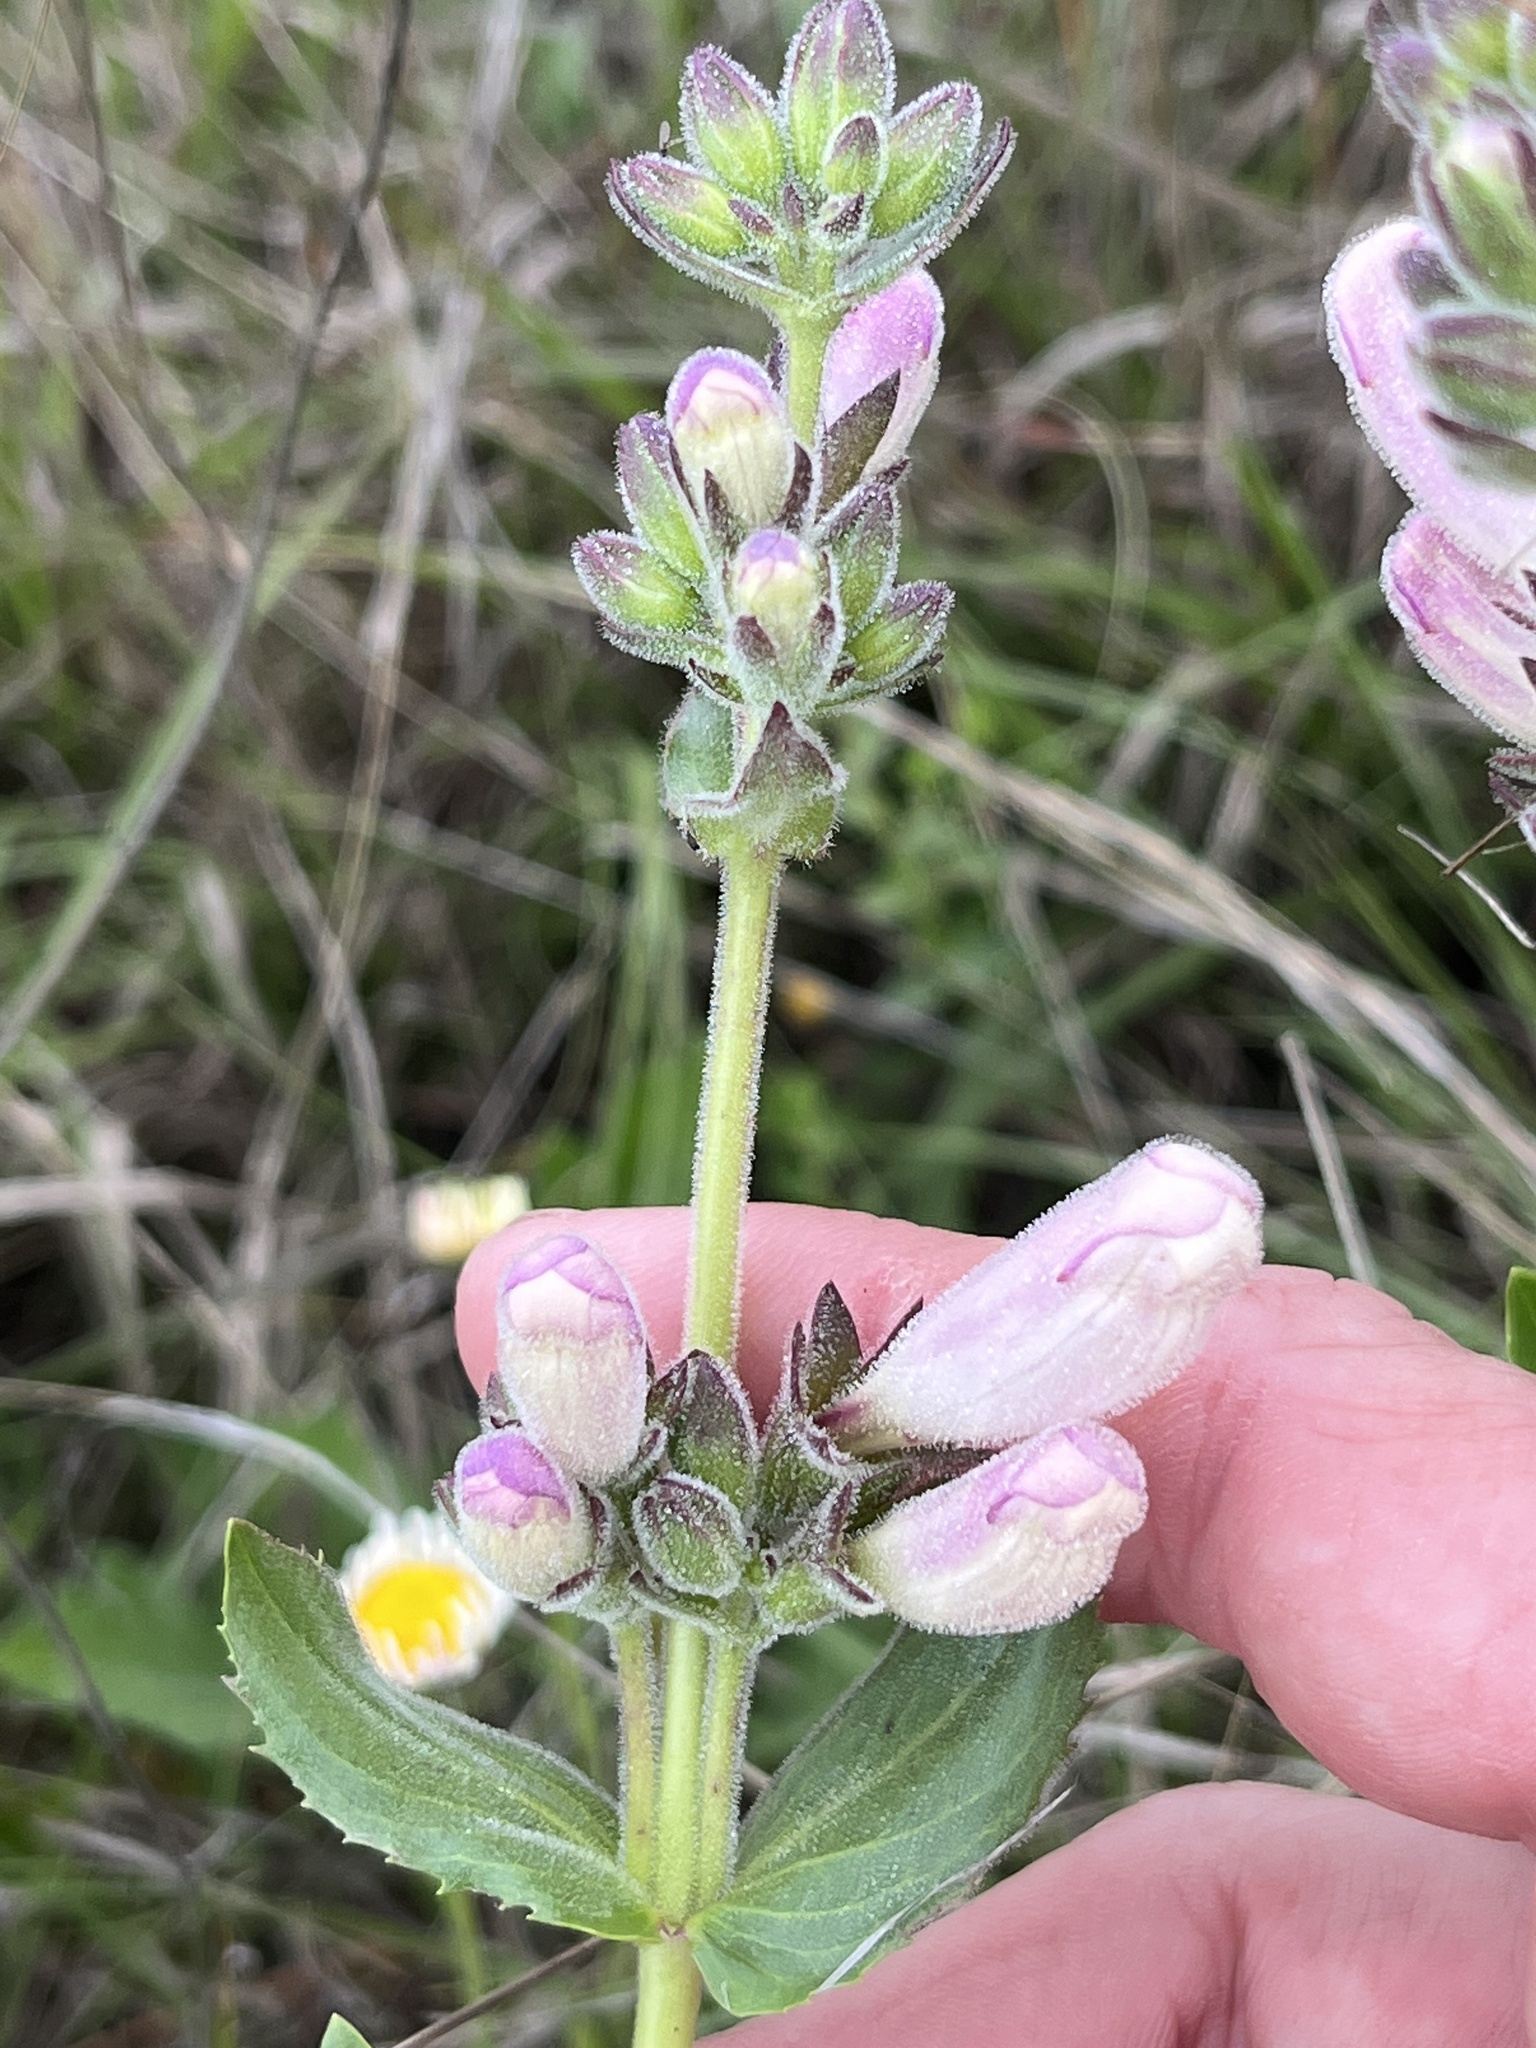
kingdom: Plantae
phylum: Tracheophyta
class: Magnoliopsida
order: Lamiales
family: Plantaginaceae
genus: Penstemon
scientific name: Penstemon cobaea
